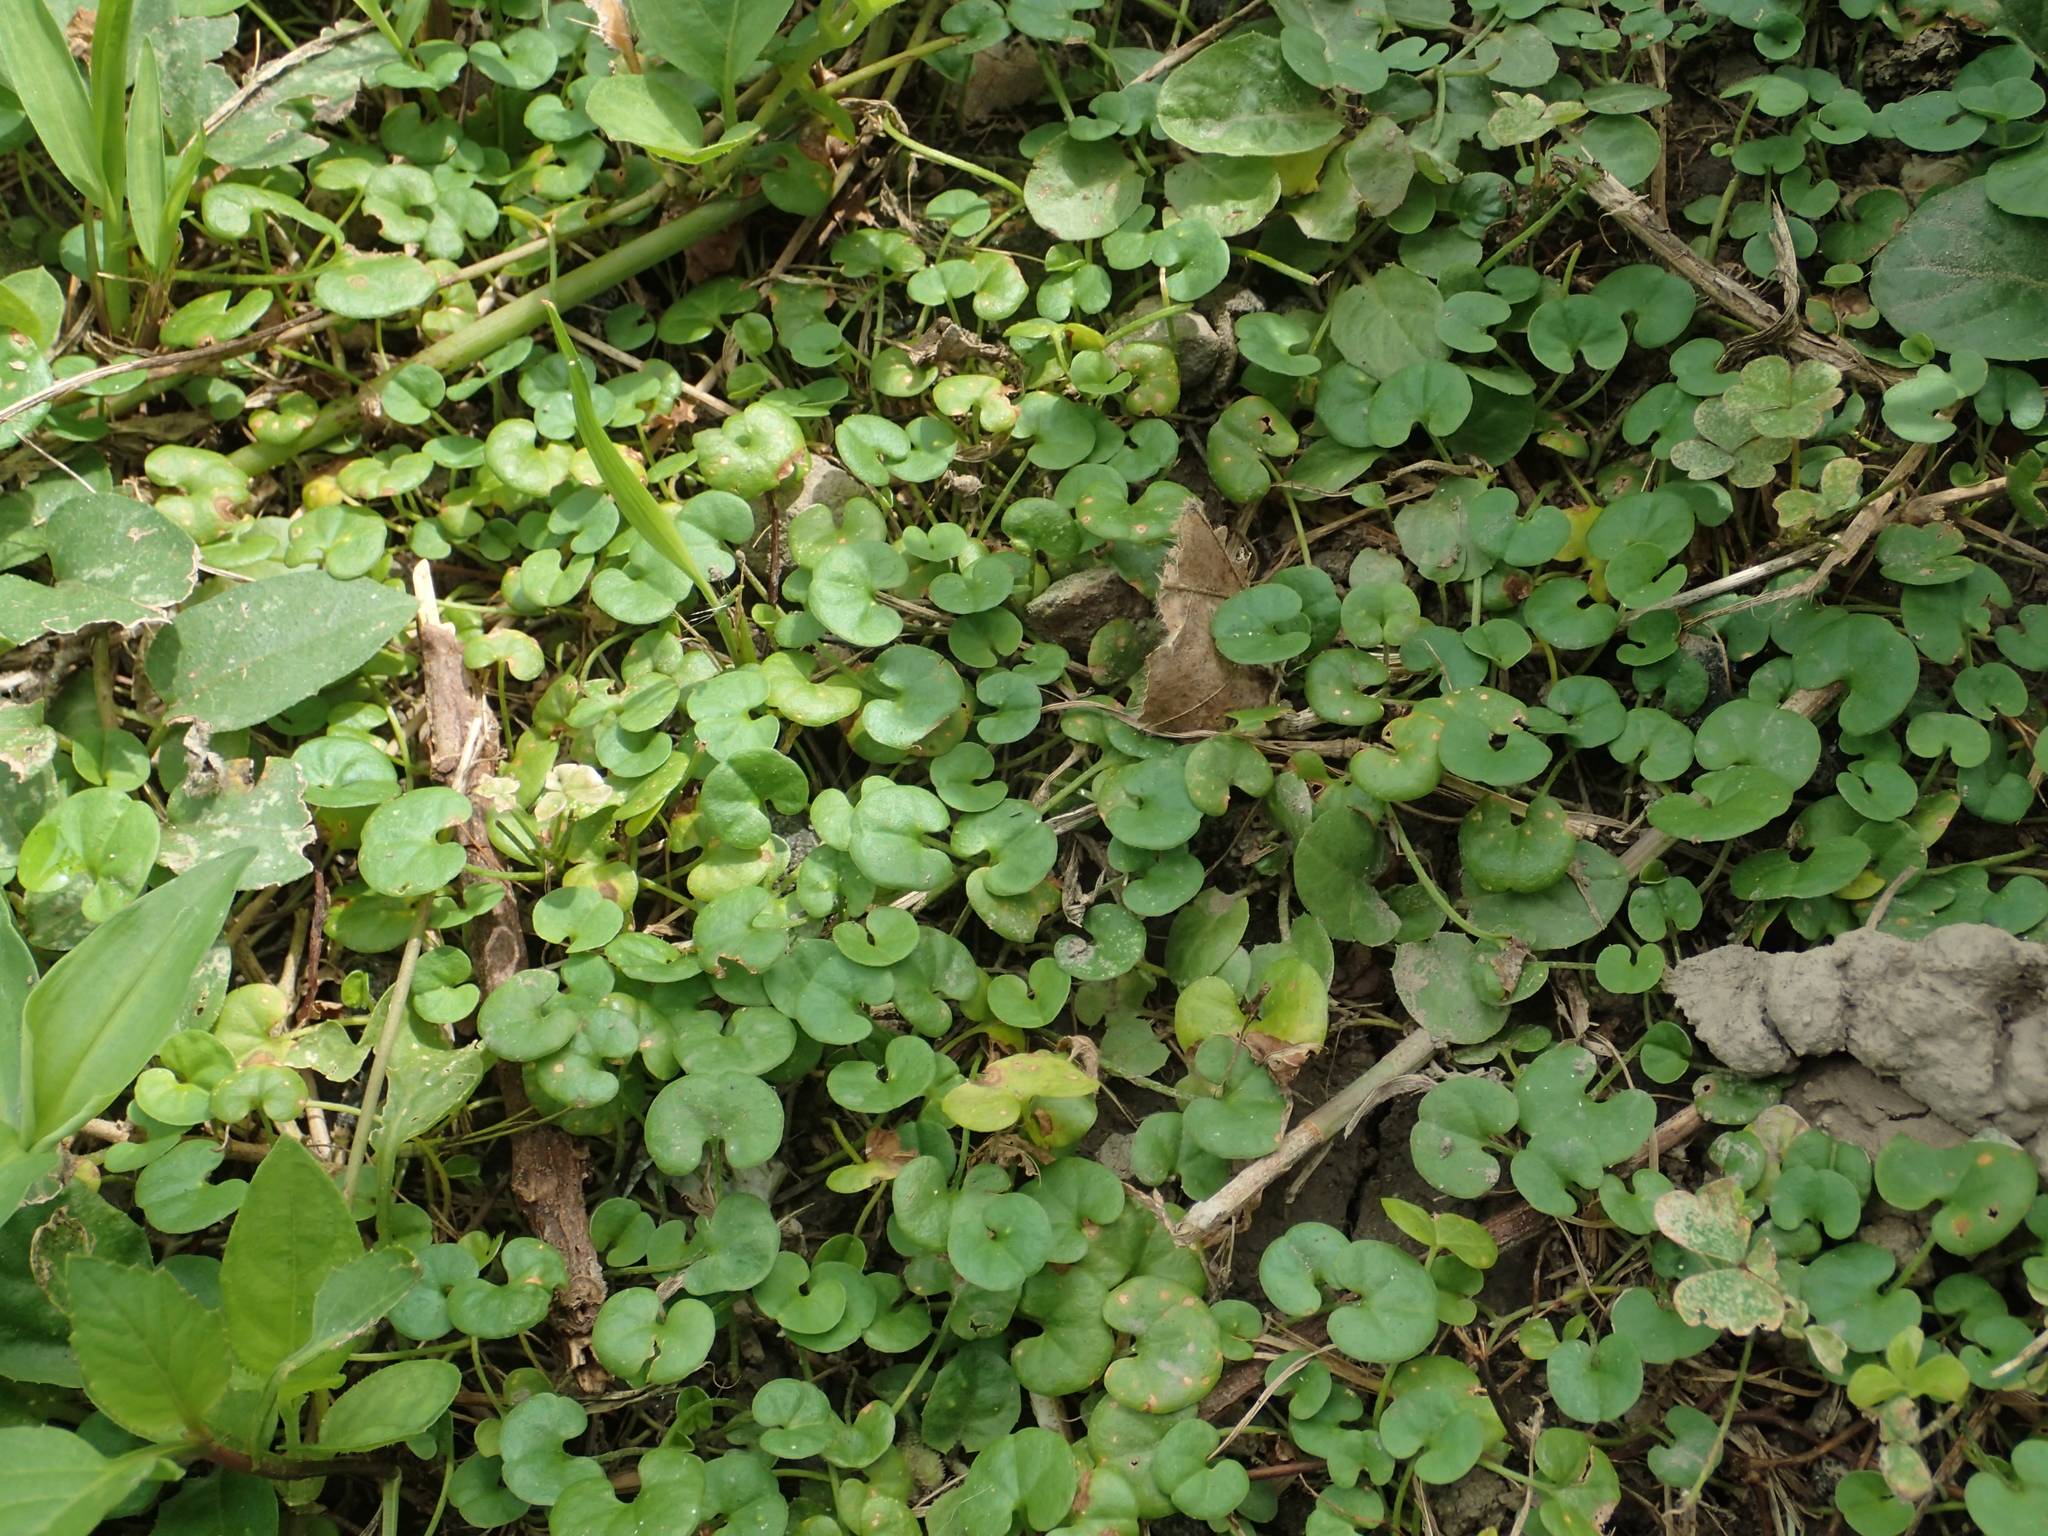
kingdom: Plantae
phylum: Tracheophyta
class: Magnoliopsida
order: Solanales
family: Convolvulaceae
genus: Dichondra
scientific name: Dichondra micrantha
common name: Kidneyweed
